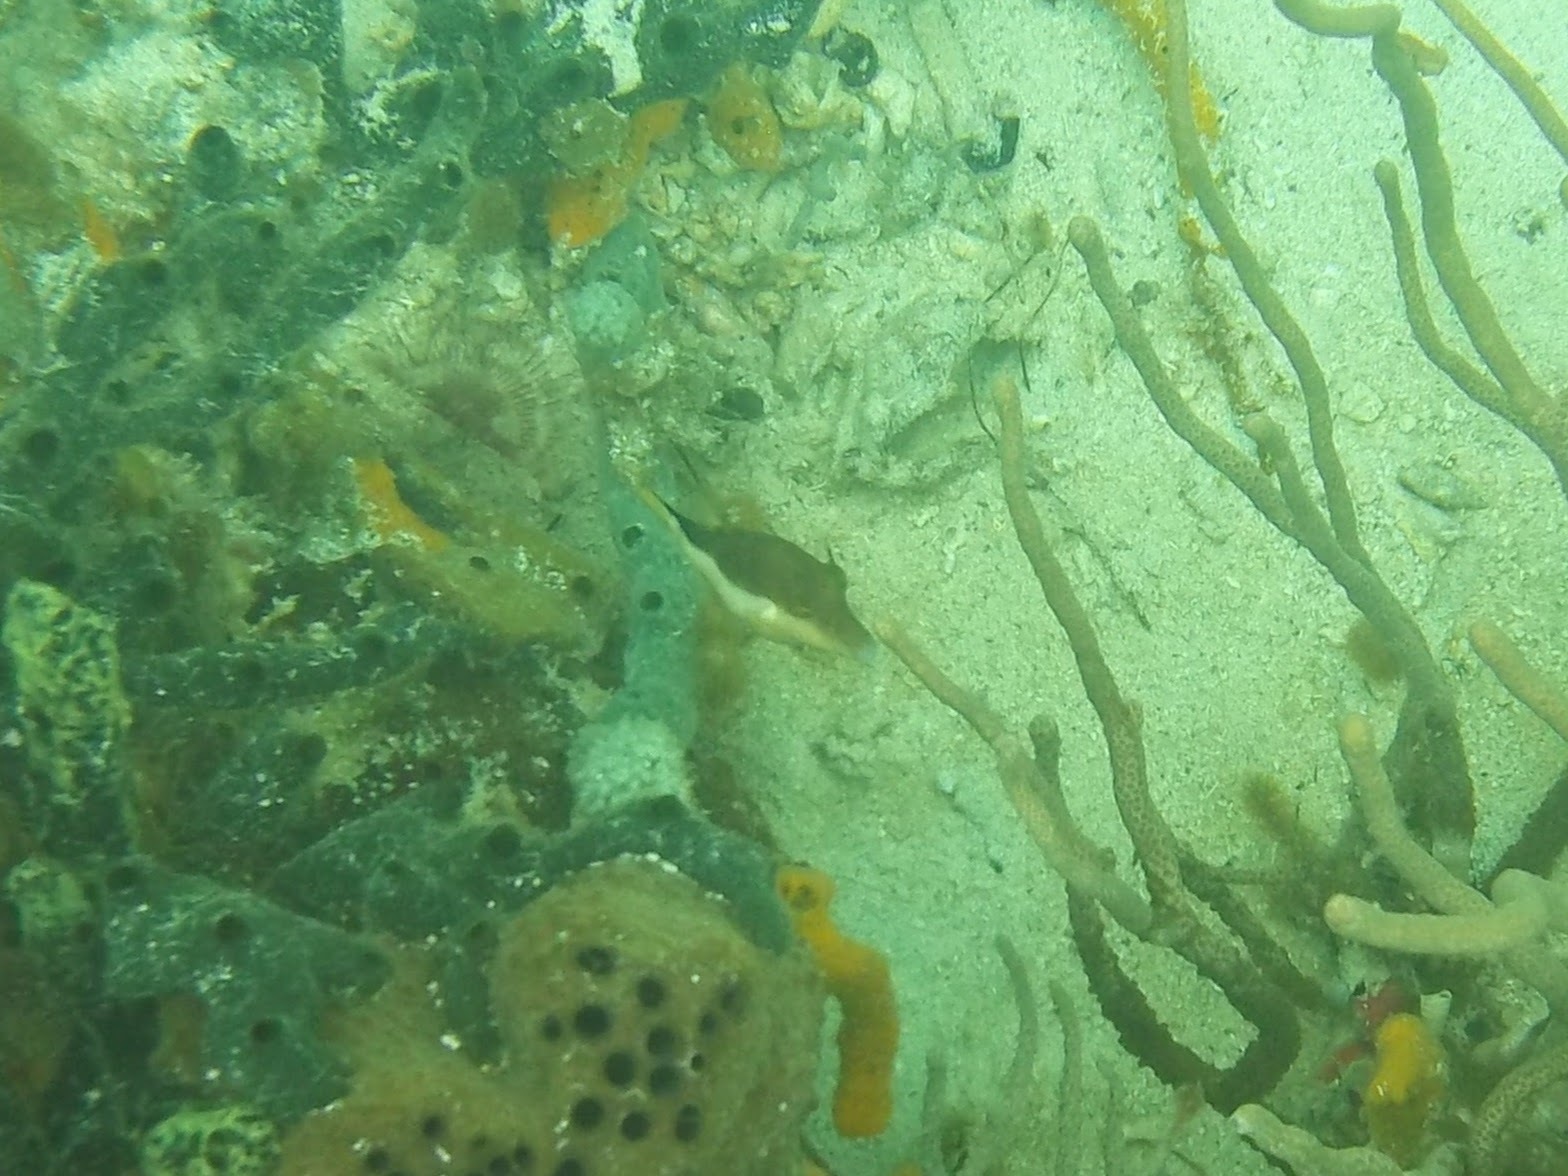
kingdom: Animalia
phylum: Chordata
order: Tetraodontiformes
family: Tetraodontidae
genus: Canthigaster
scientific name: Canthigaster rostrata
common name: Caribbean sharpnose-puffer
